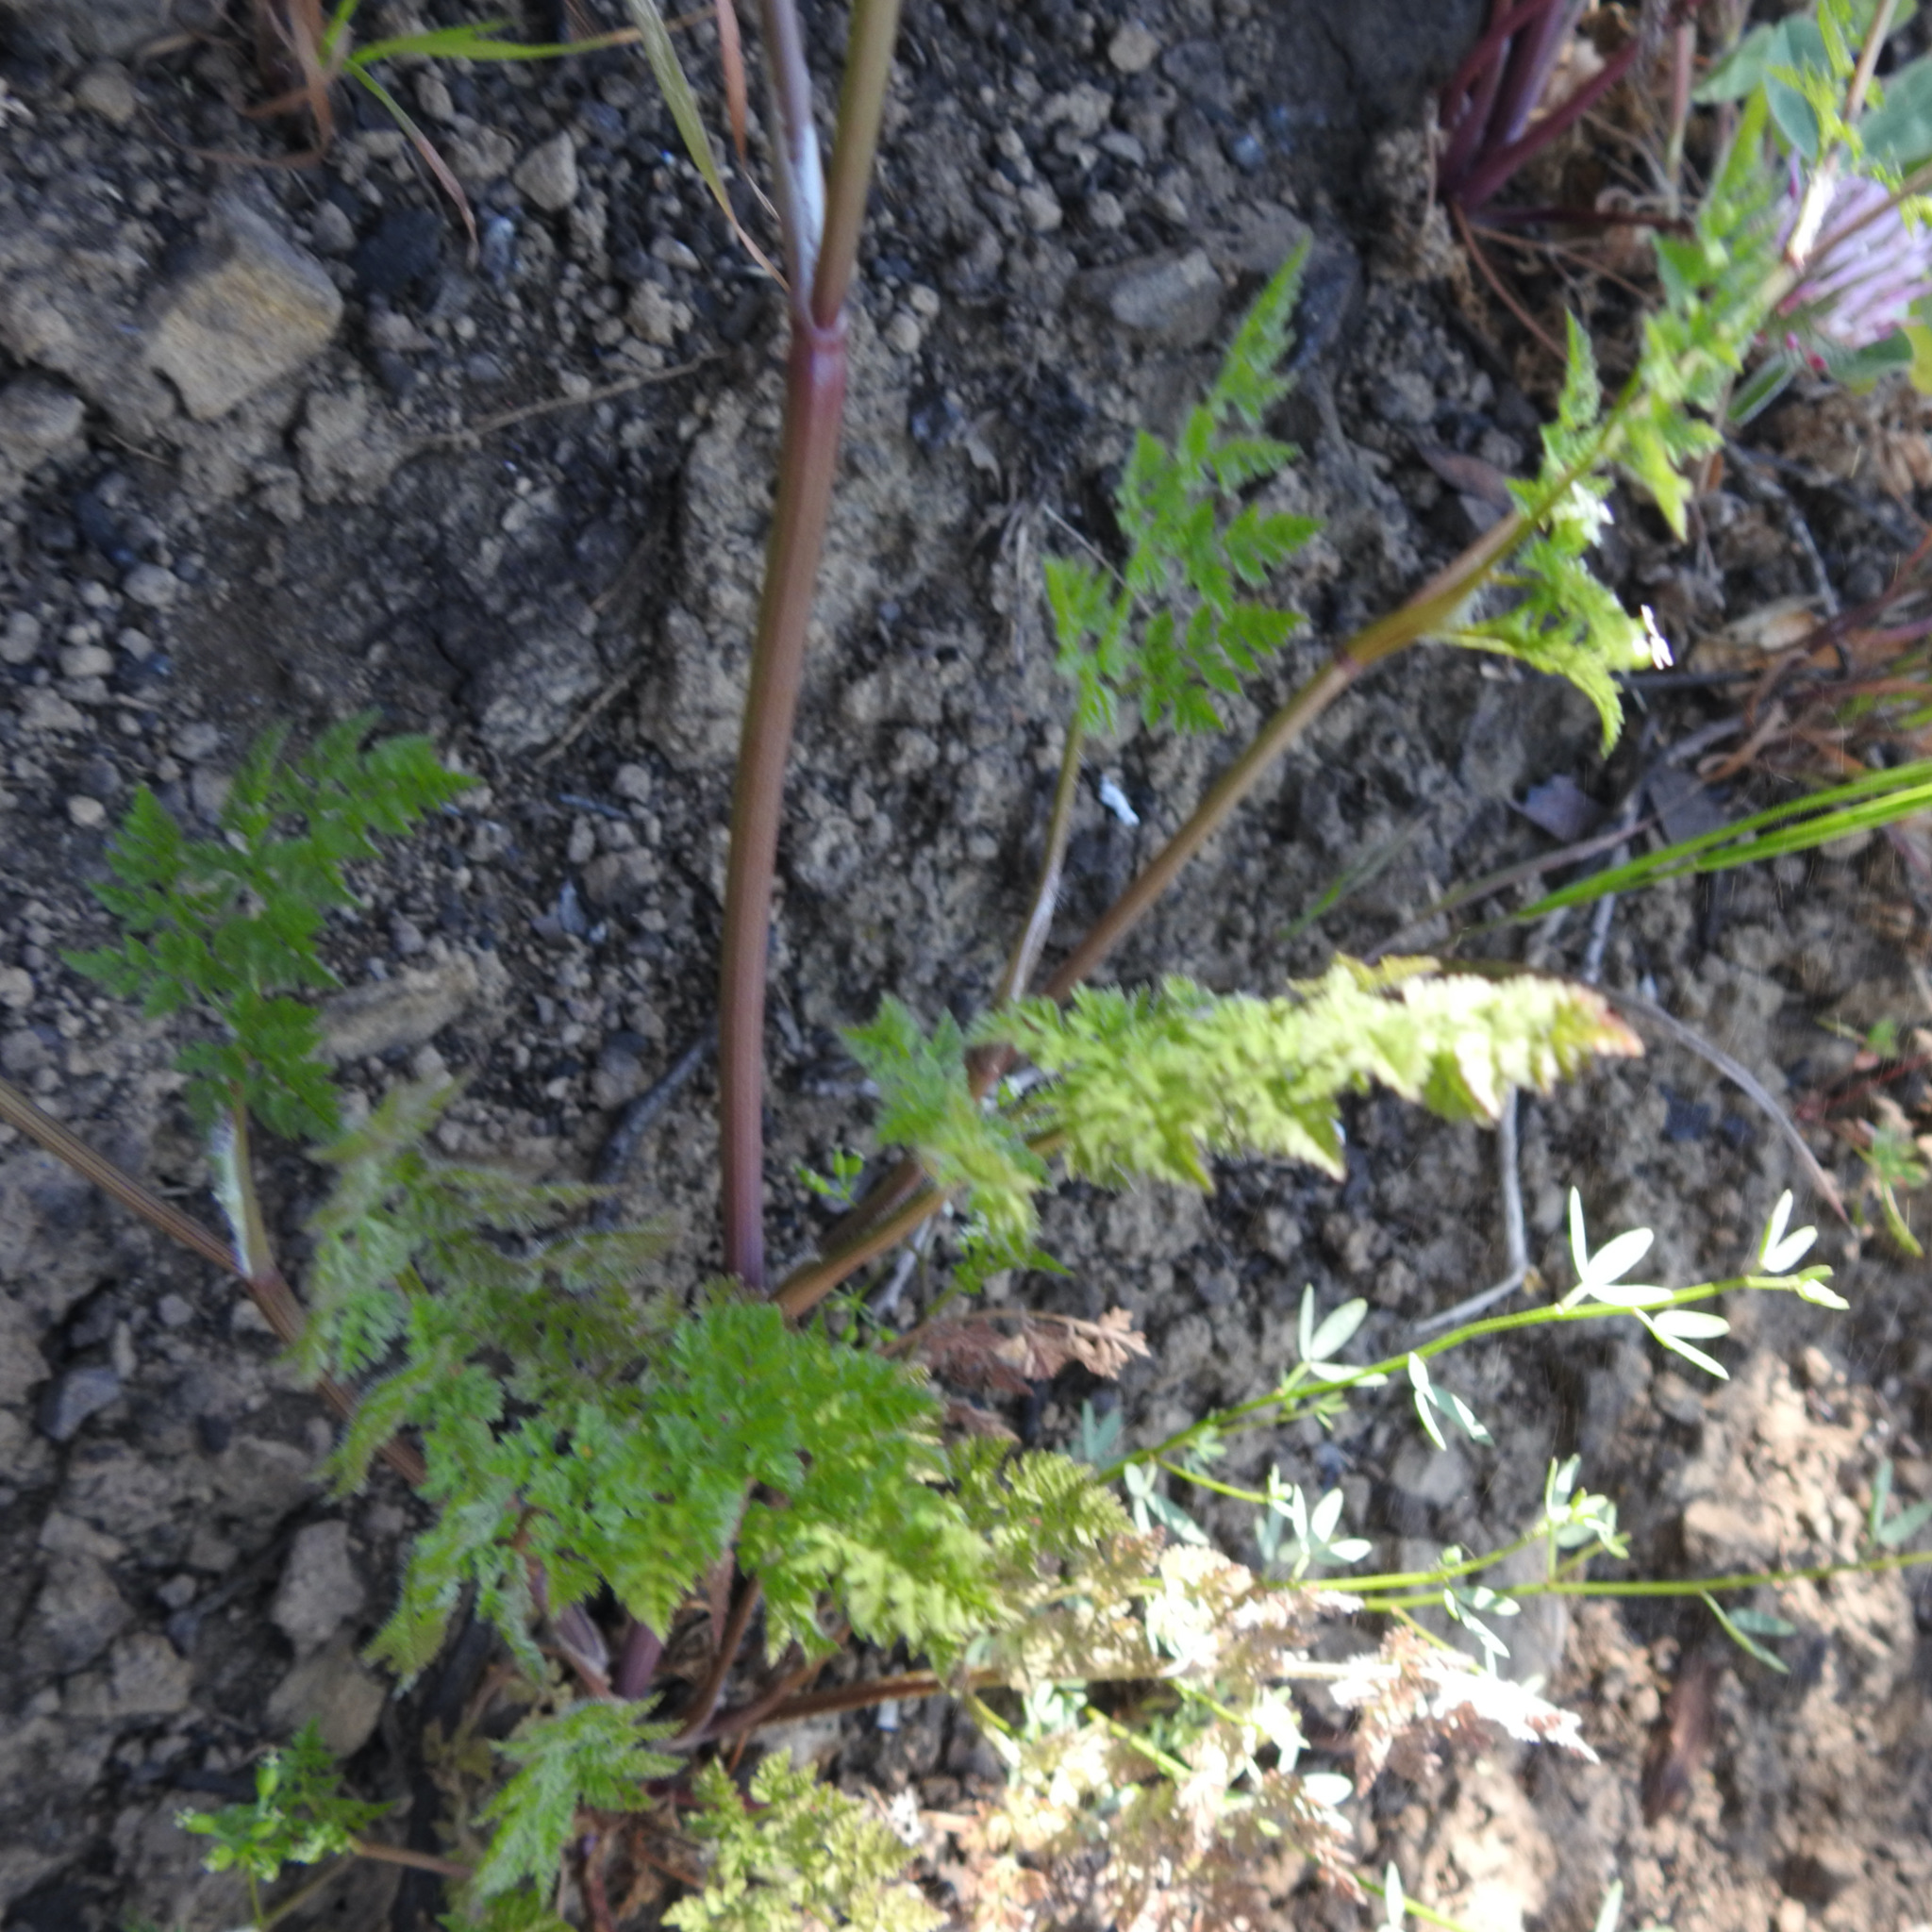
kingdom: Plantae
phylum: Tracheophyta
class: Magnoliopsida
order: Apiales
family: Apiaceae
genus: Anthriscus
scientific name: Anthriscus caucalis
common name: Bur chervil
